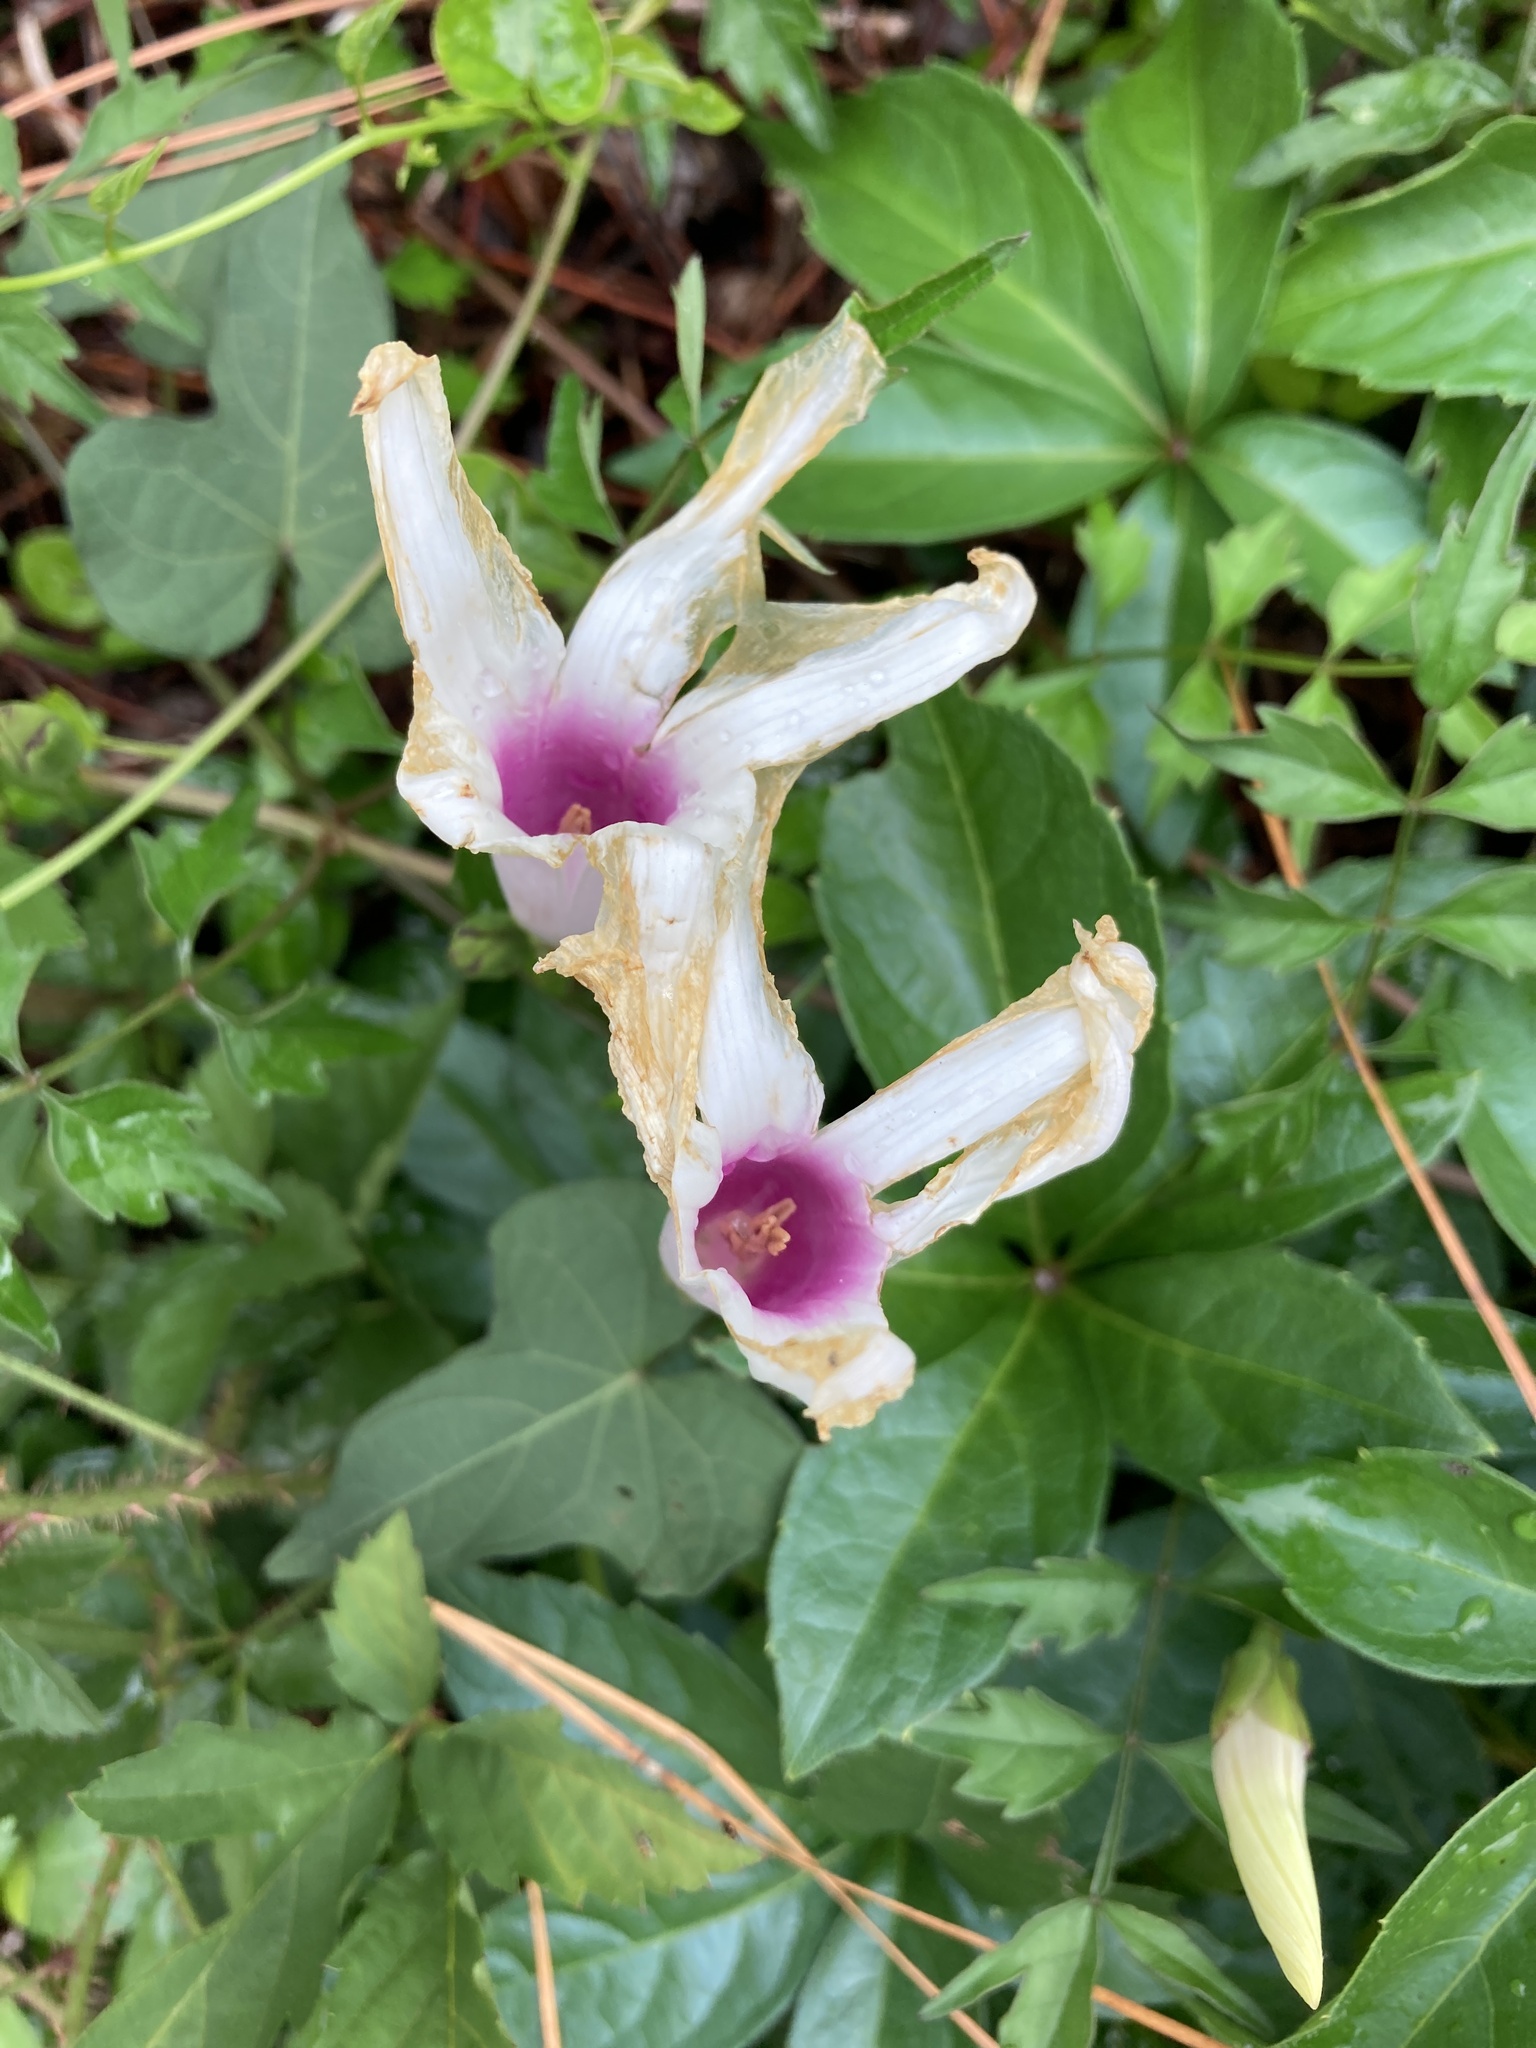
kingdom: Plantae
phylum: Tracheophyta
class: Magnoliopsida
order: Solanales
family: Convolvulaceae
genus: Ipomoea
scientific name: Ipomoea pandurata
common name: Man-of-the-earth
